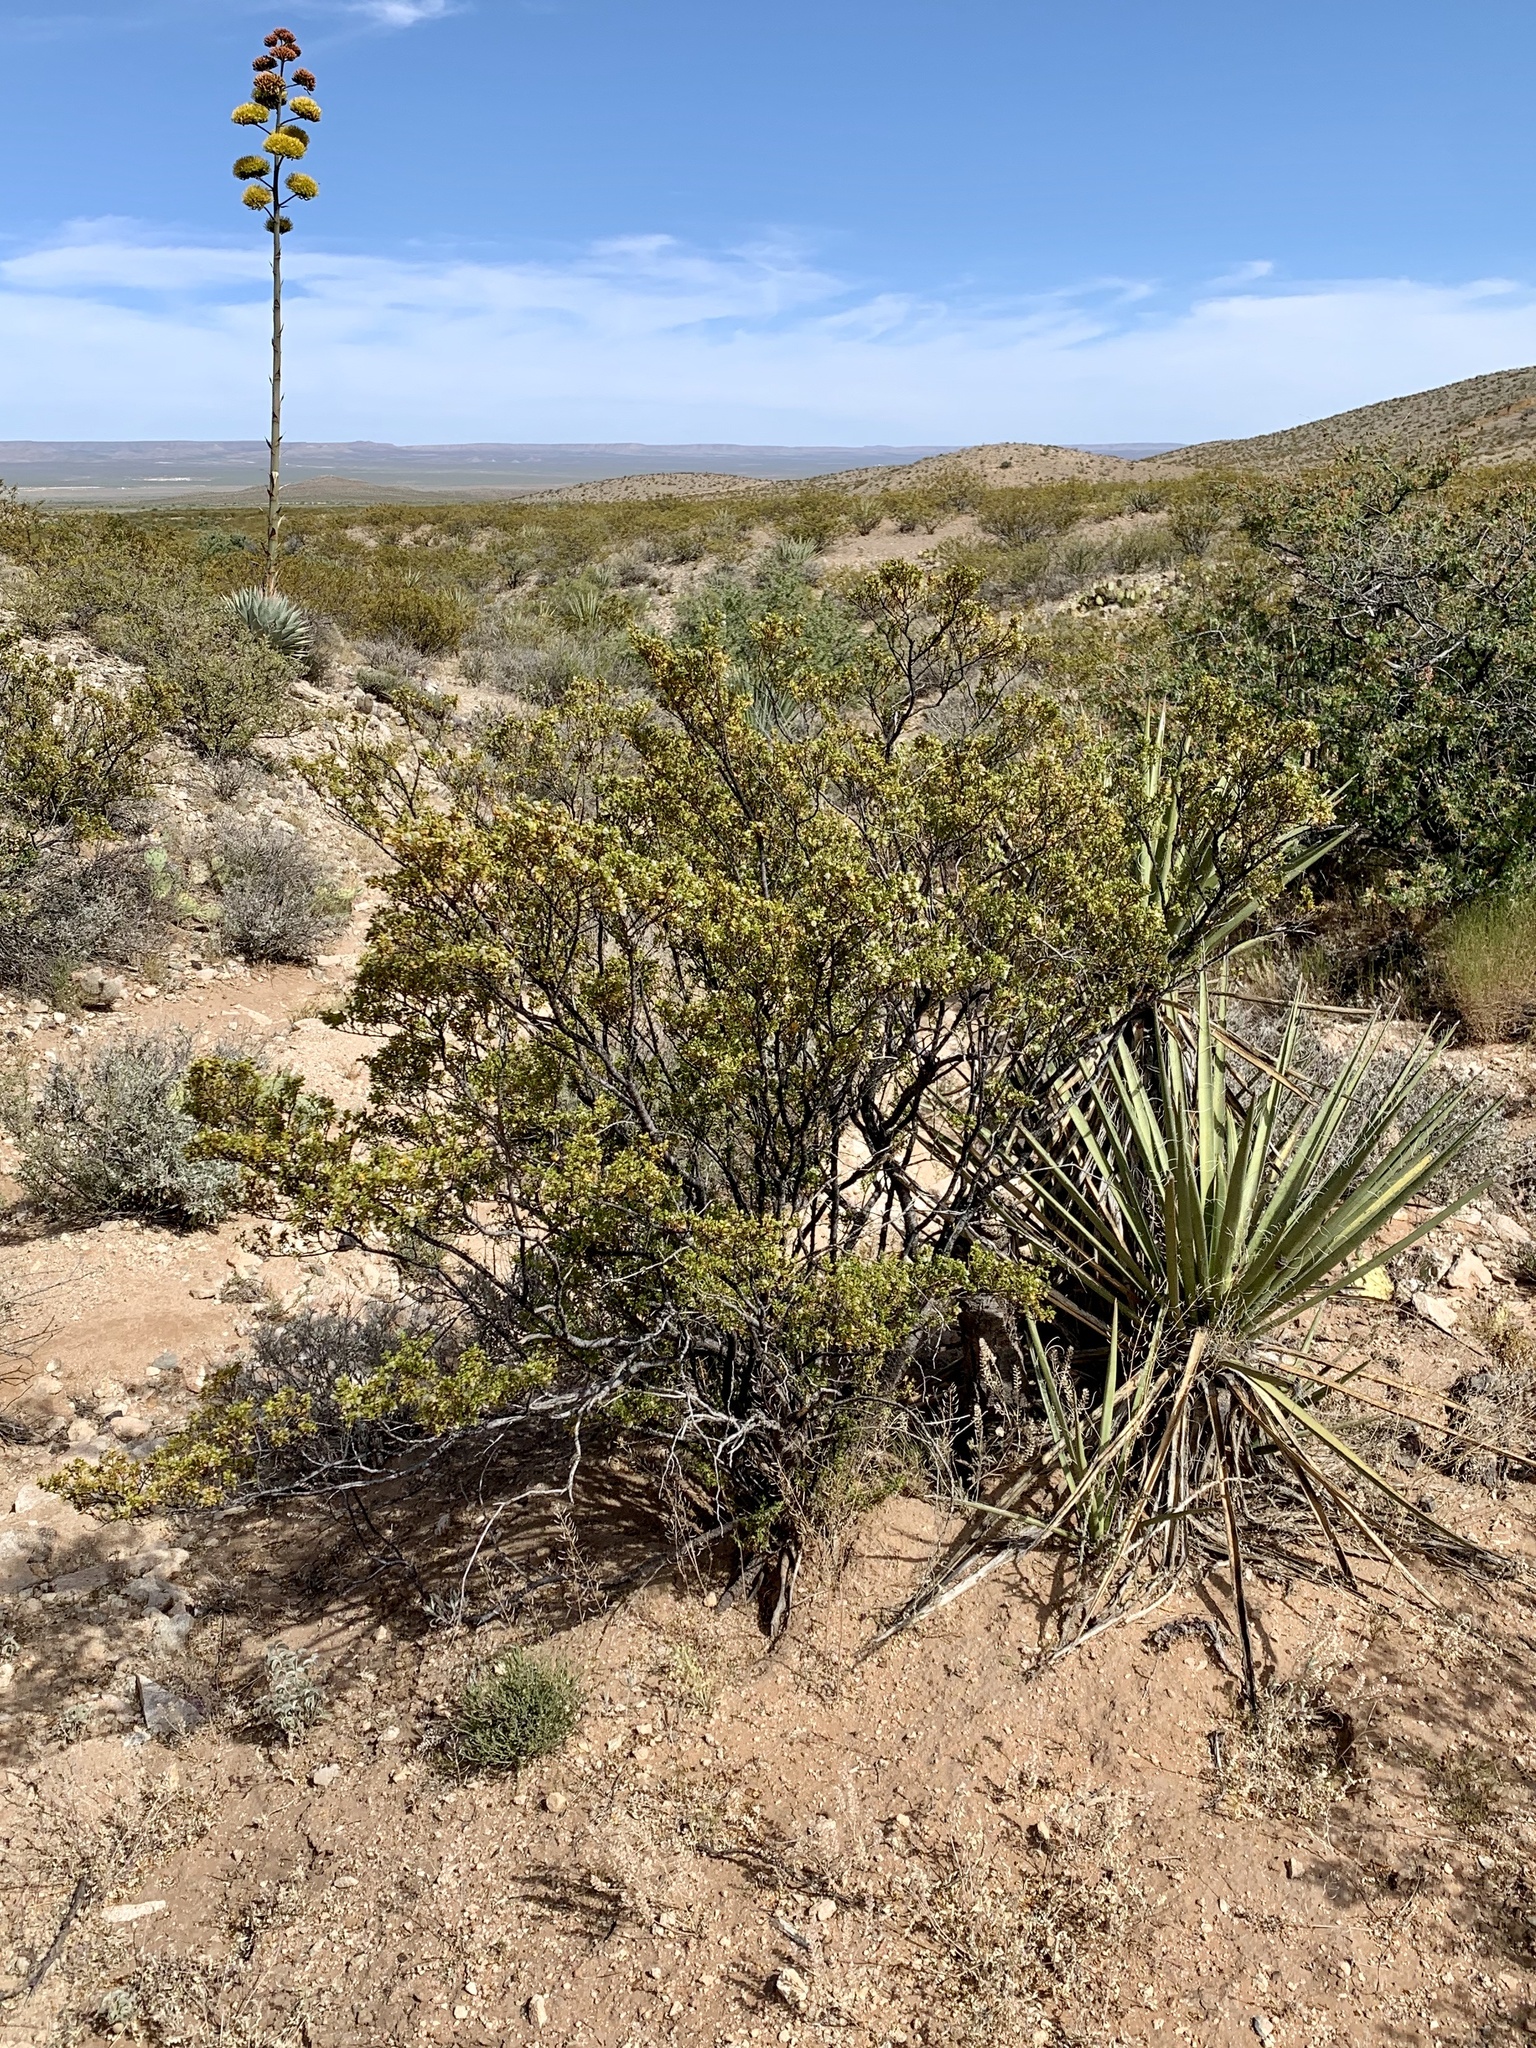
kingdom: Plantae
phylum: Tracheophyta
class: Magnoliopsida
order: Zygophyllales
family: Zygophyllaceae
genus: Larrea
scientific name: Larrea tridentata
